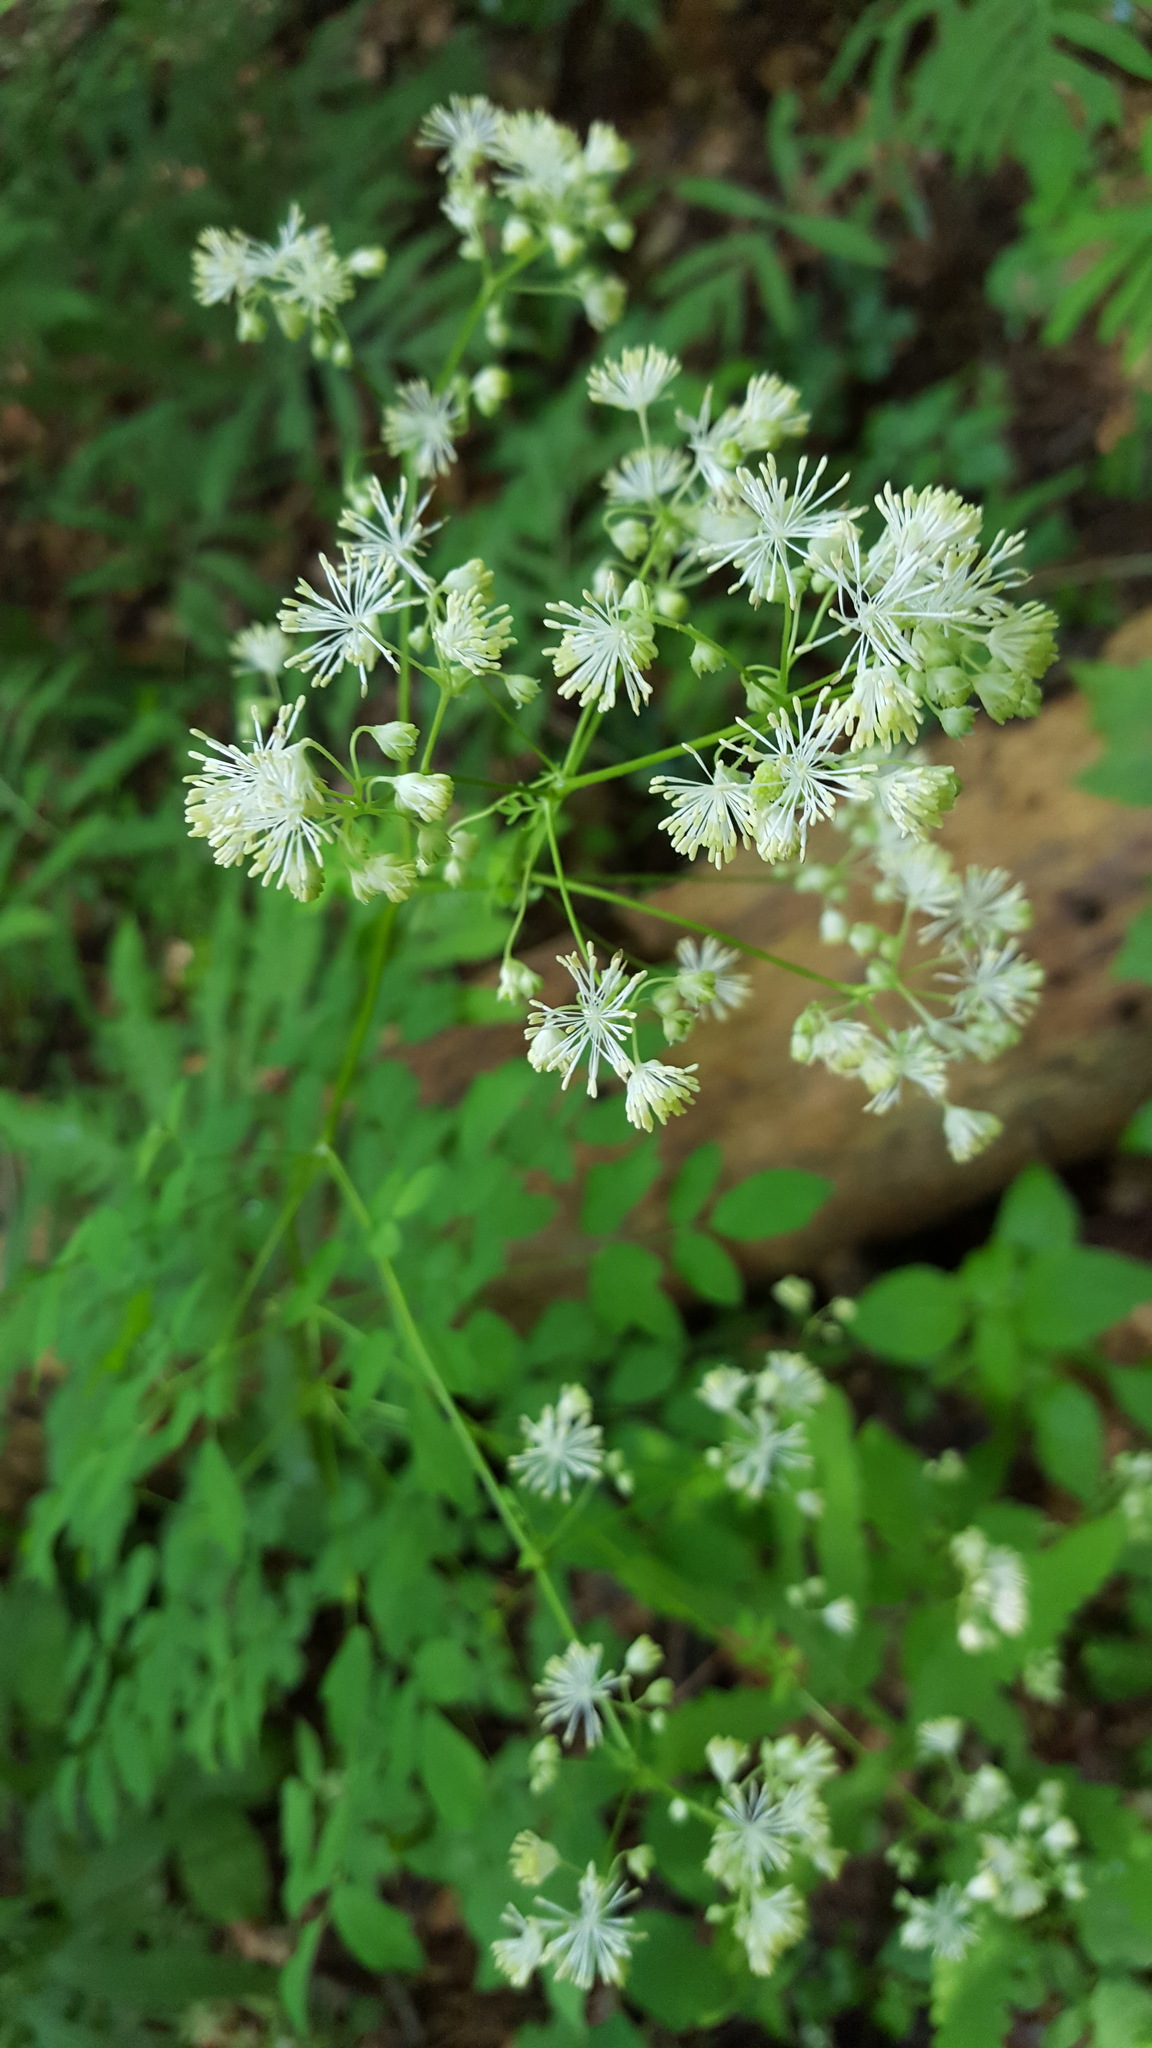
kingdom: Plantae
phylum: Tracheophyta
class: Magnoliopsida
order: Ranunculales
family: Ranunculaceae
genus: Thalictrum
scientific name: Thalictrum pubescens
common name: King-of-the-meadow
